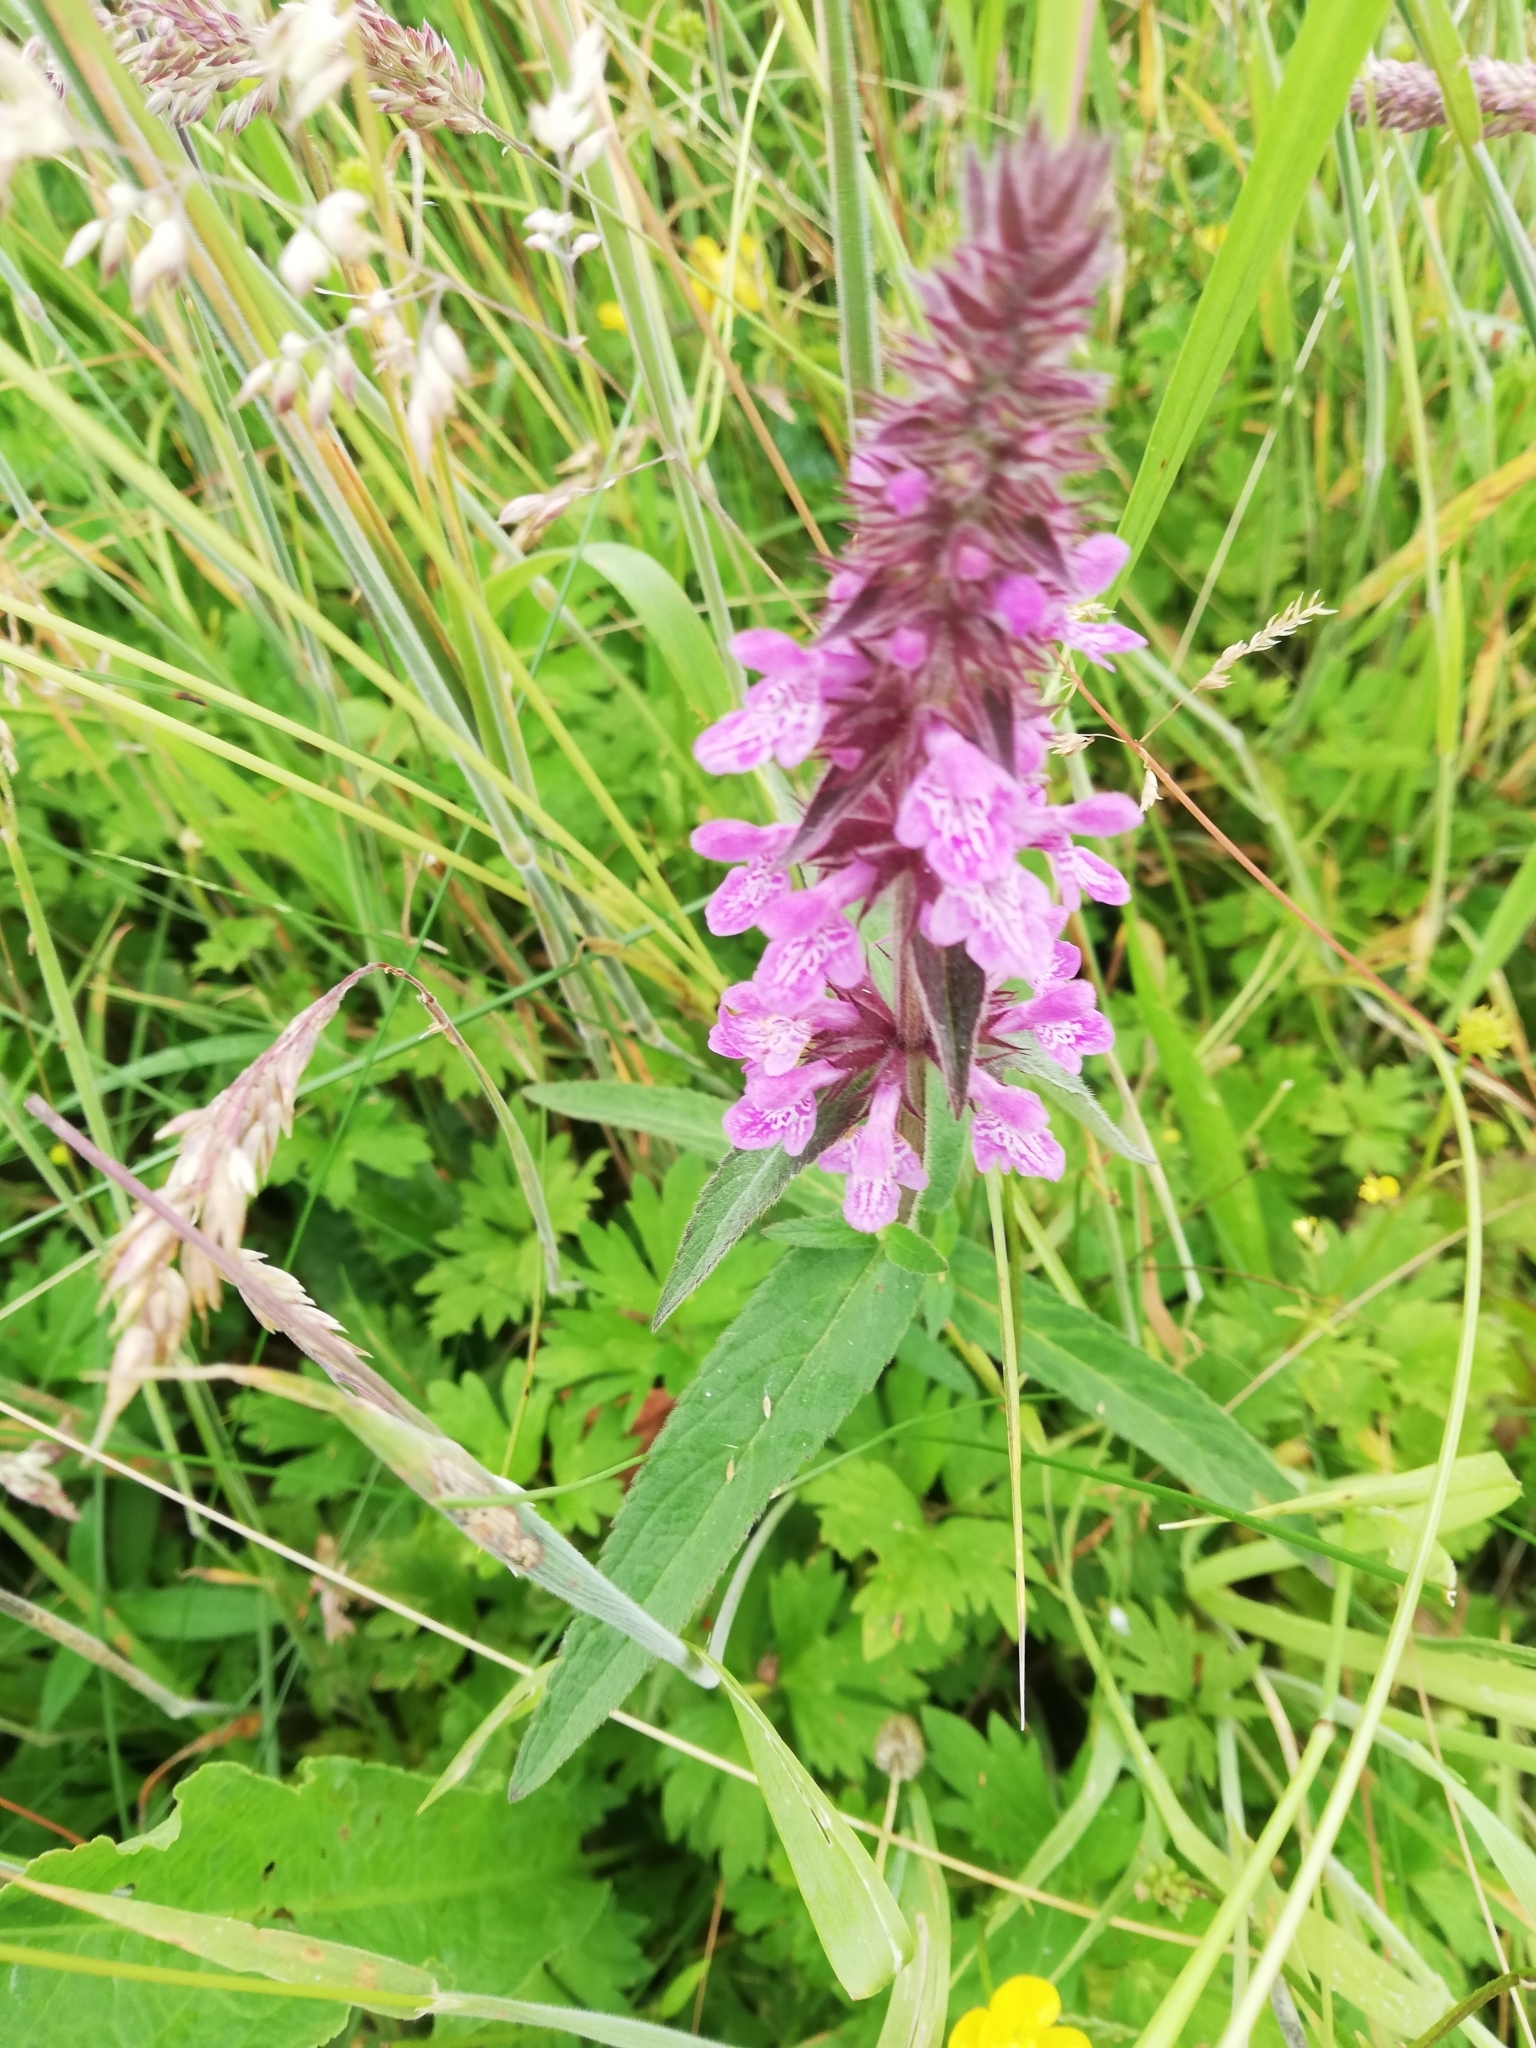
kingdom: Plantae
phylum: Tracheophyta
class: Magnoliopsida
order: Lamiales
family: Lamiaceae
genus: Stachys
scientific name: Stachys palustris
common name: Marsh woundwort
